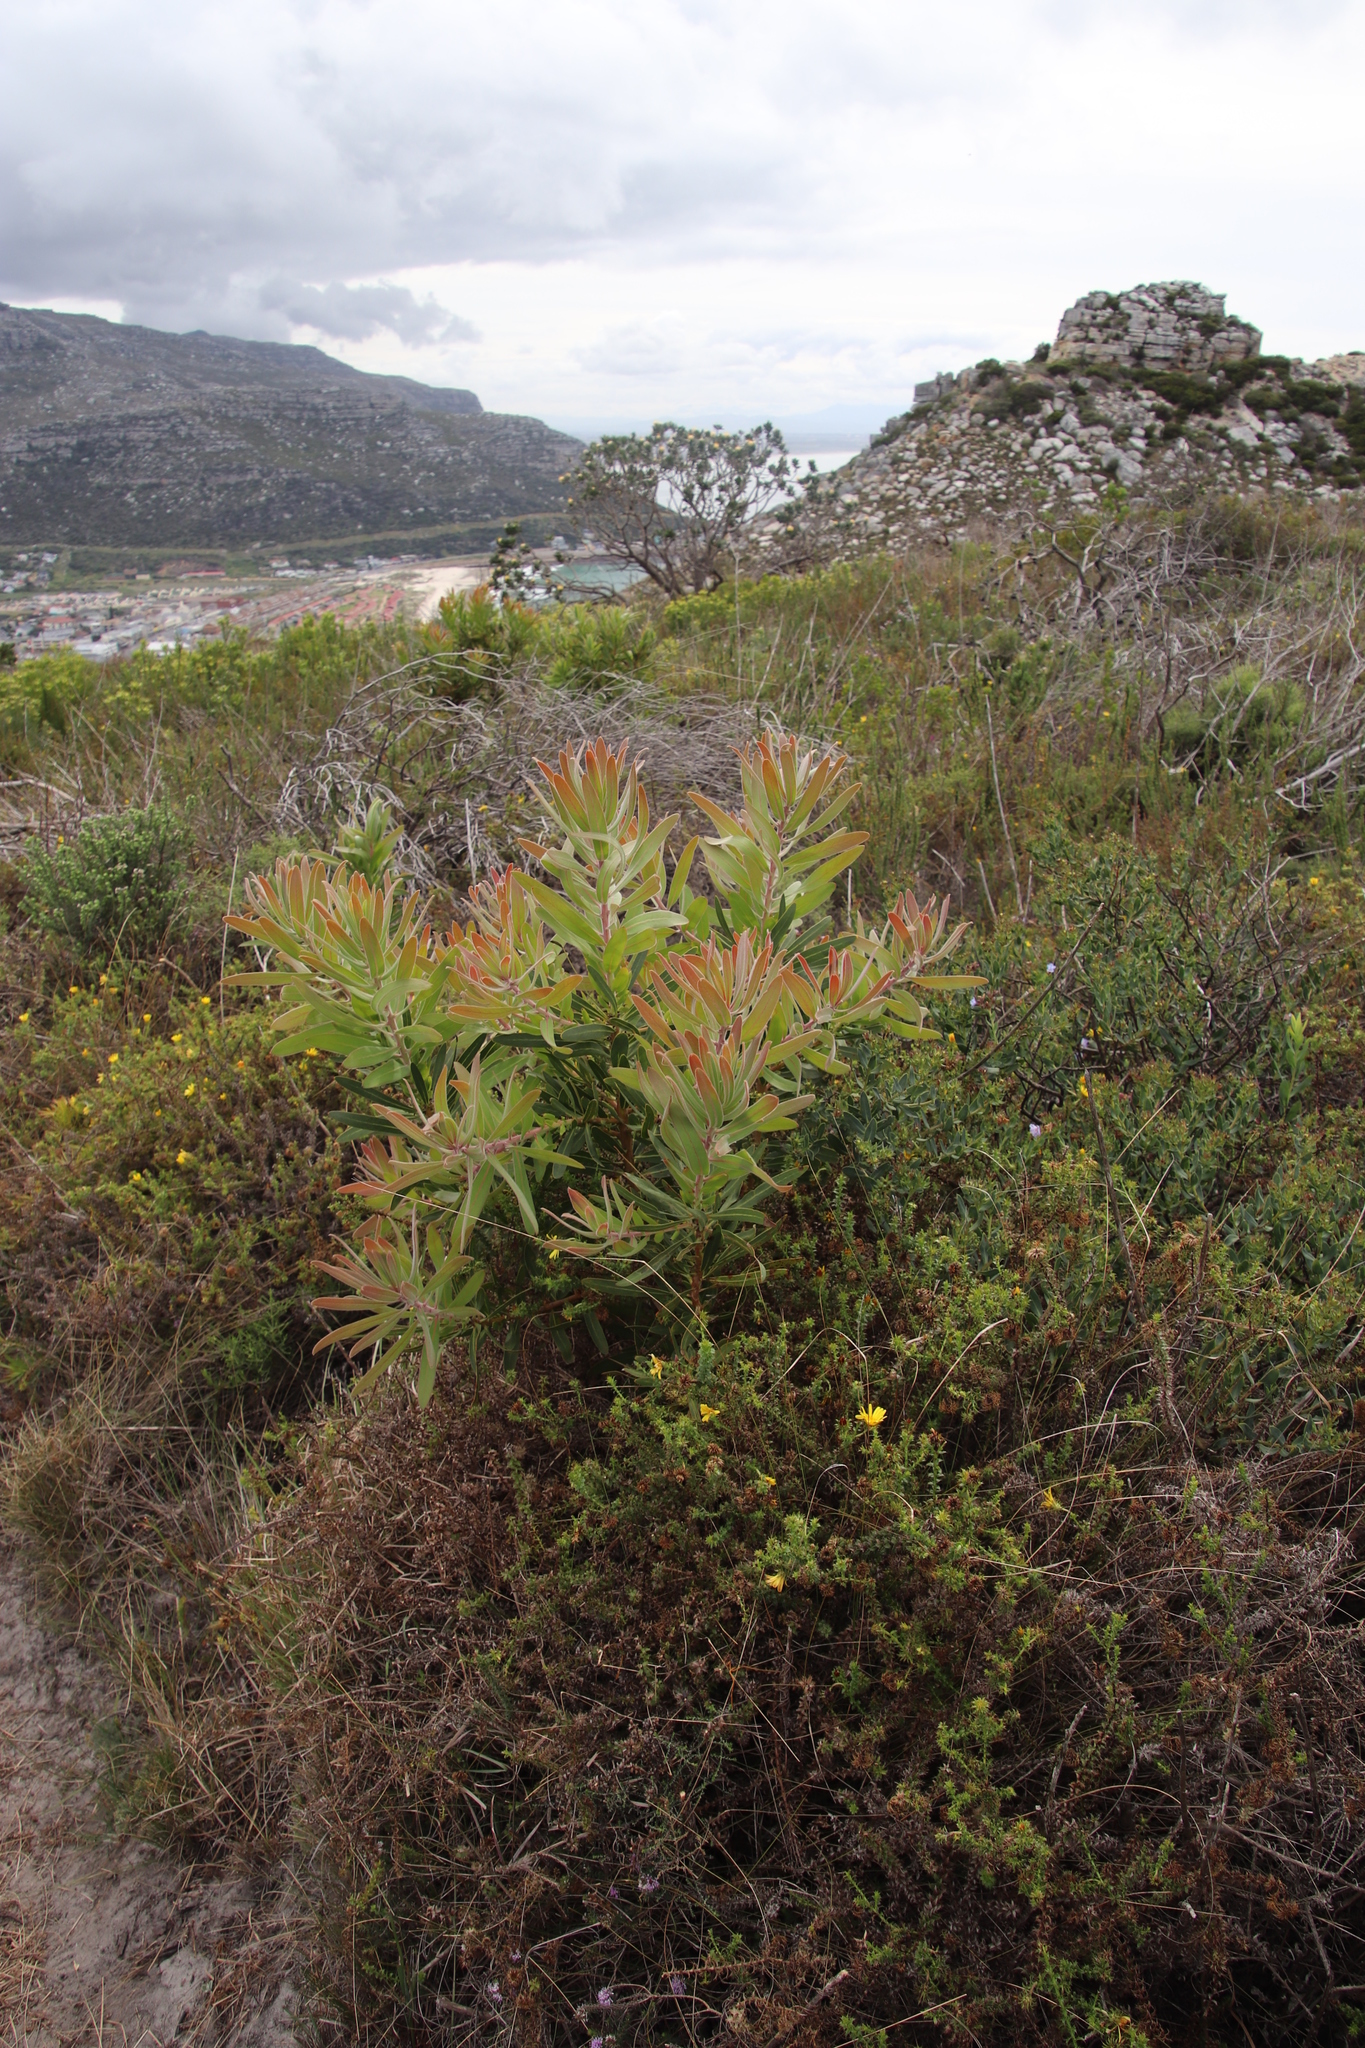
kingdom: Plantae
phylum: Tracheophyta
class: Magnoliopsida
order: Proteales
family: Proteaceae
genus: Protea
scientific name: Protea lepidocarpodendron
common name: Black-bearded protea
